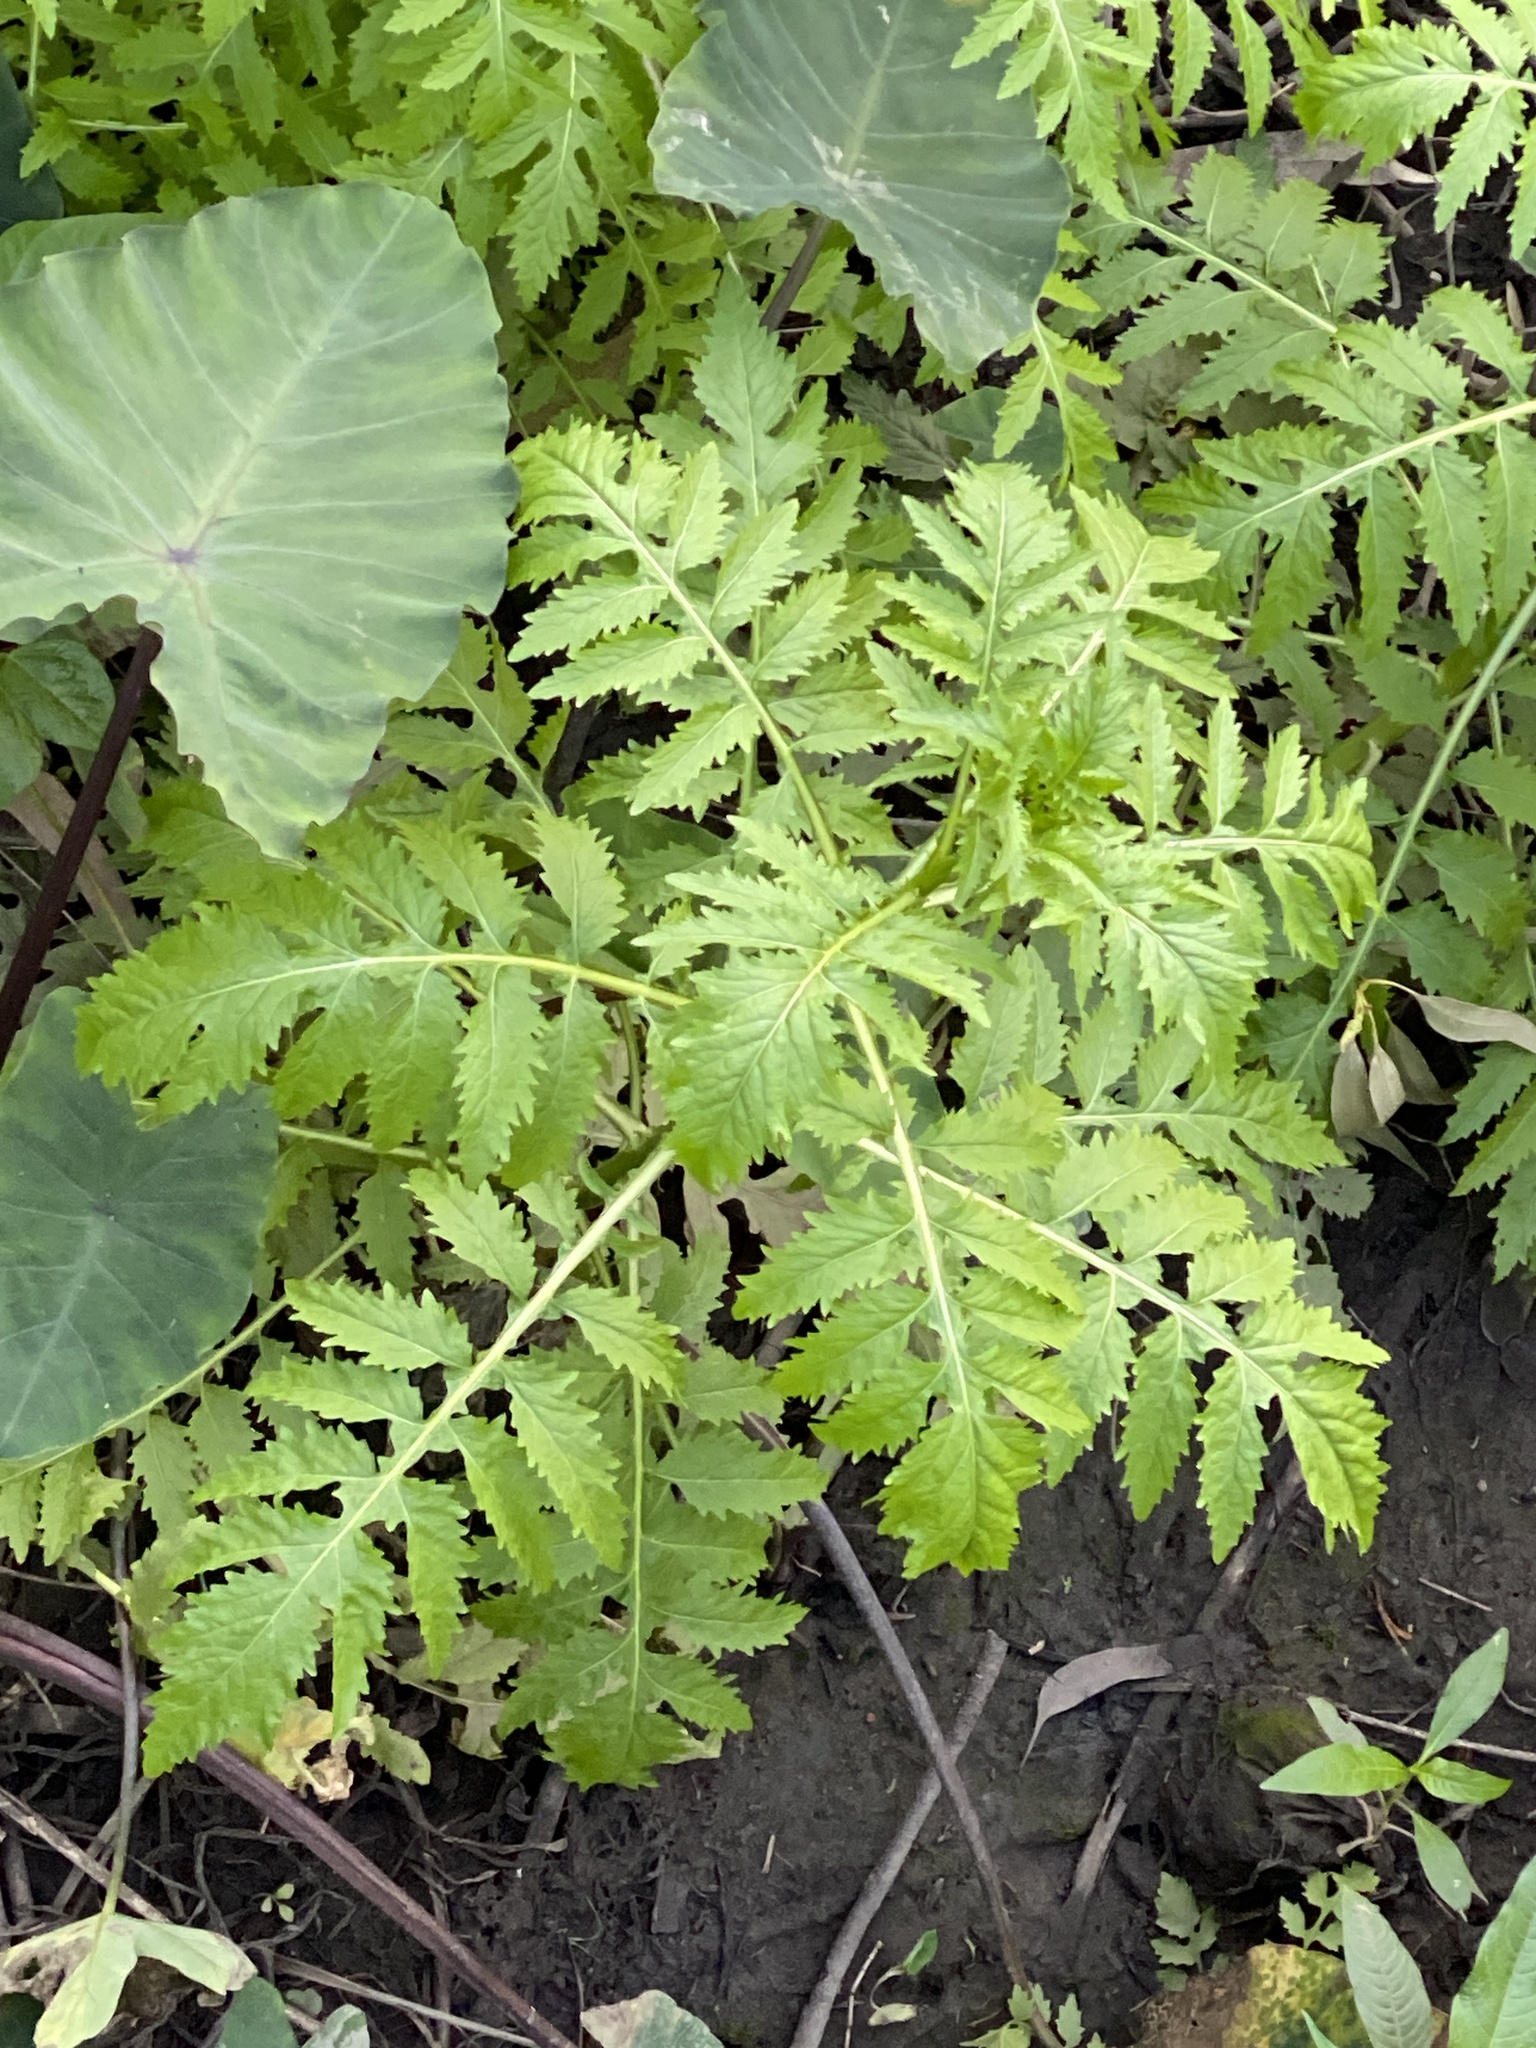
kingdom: Plantae
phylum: Tracheophyta
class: Magnoliopsida
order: Asterales
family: Asteraceae
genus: Erechtites
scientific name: Erechtites valerianifolius
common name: Tropical burnweed
